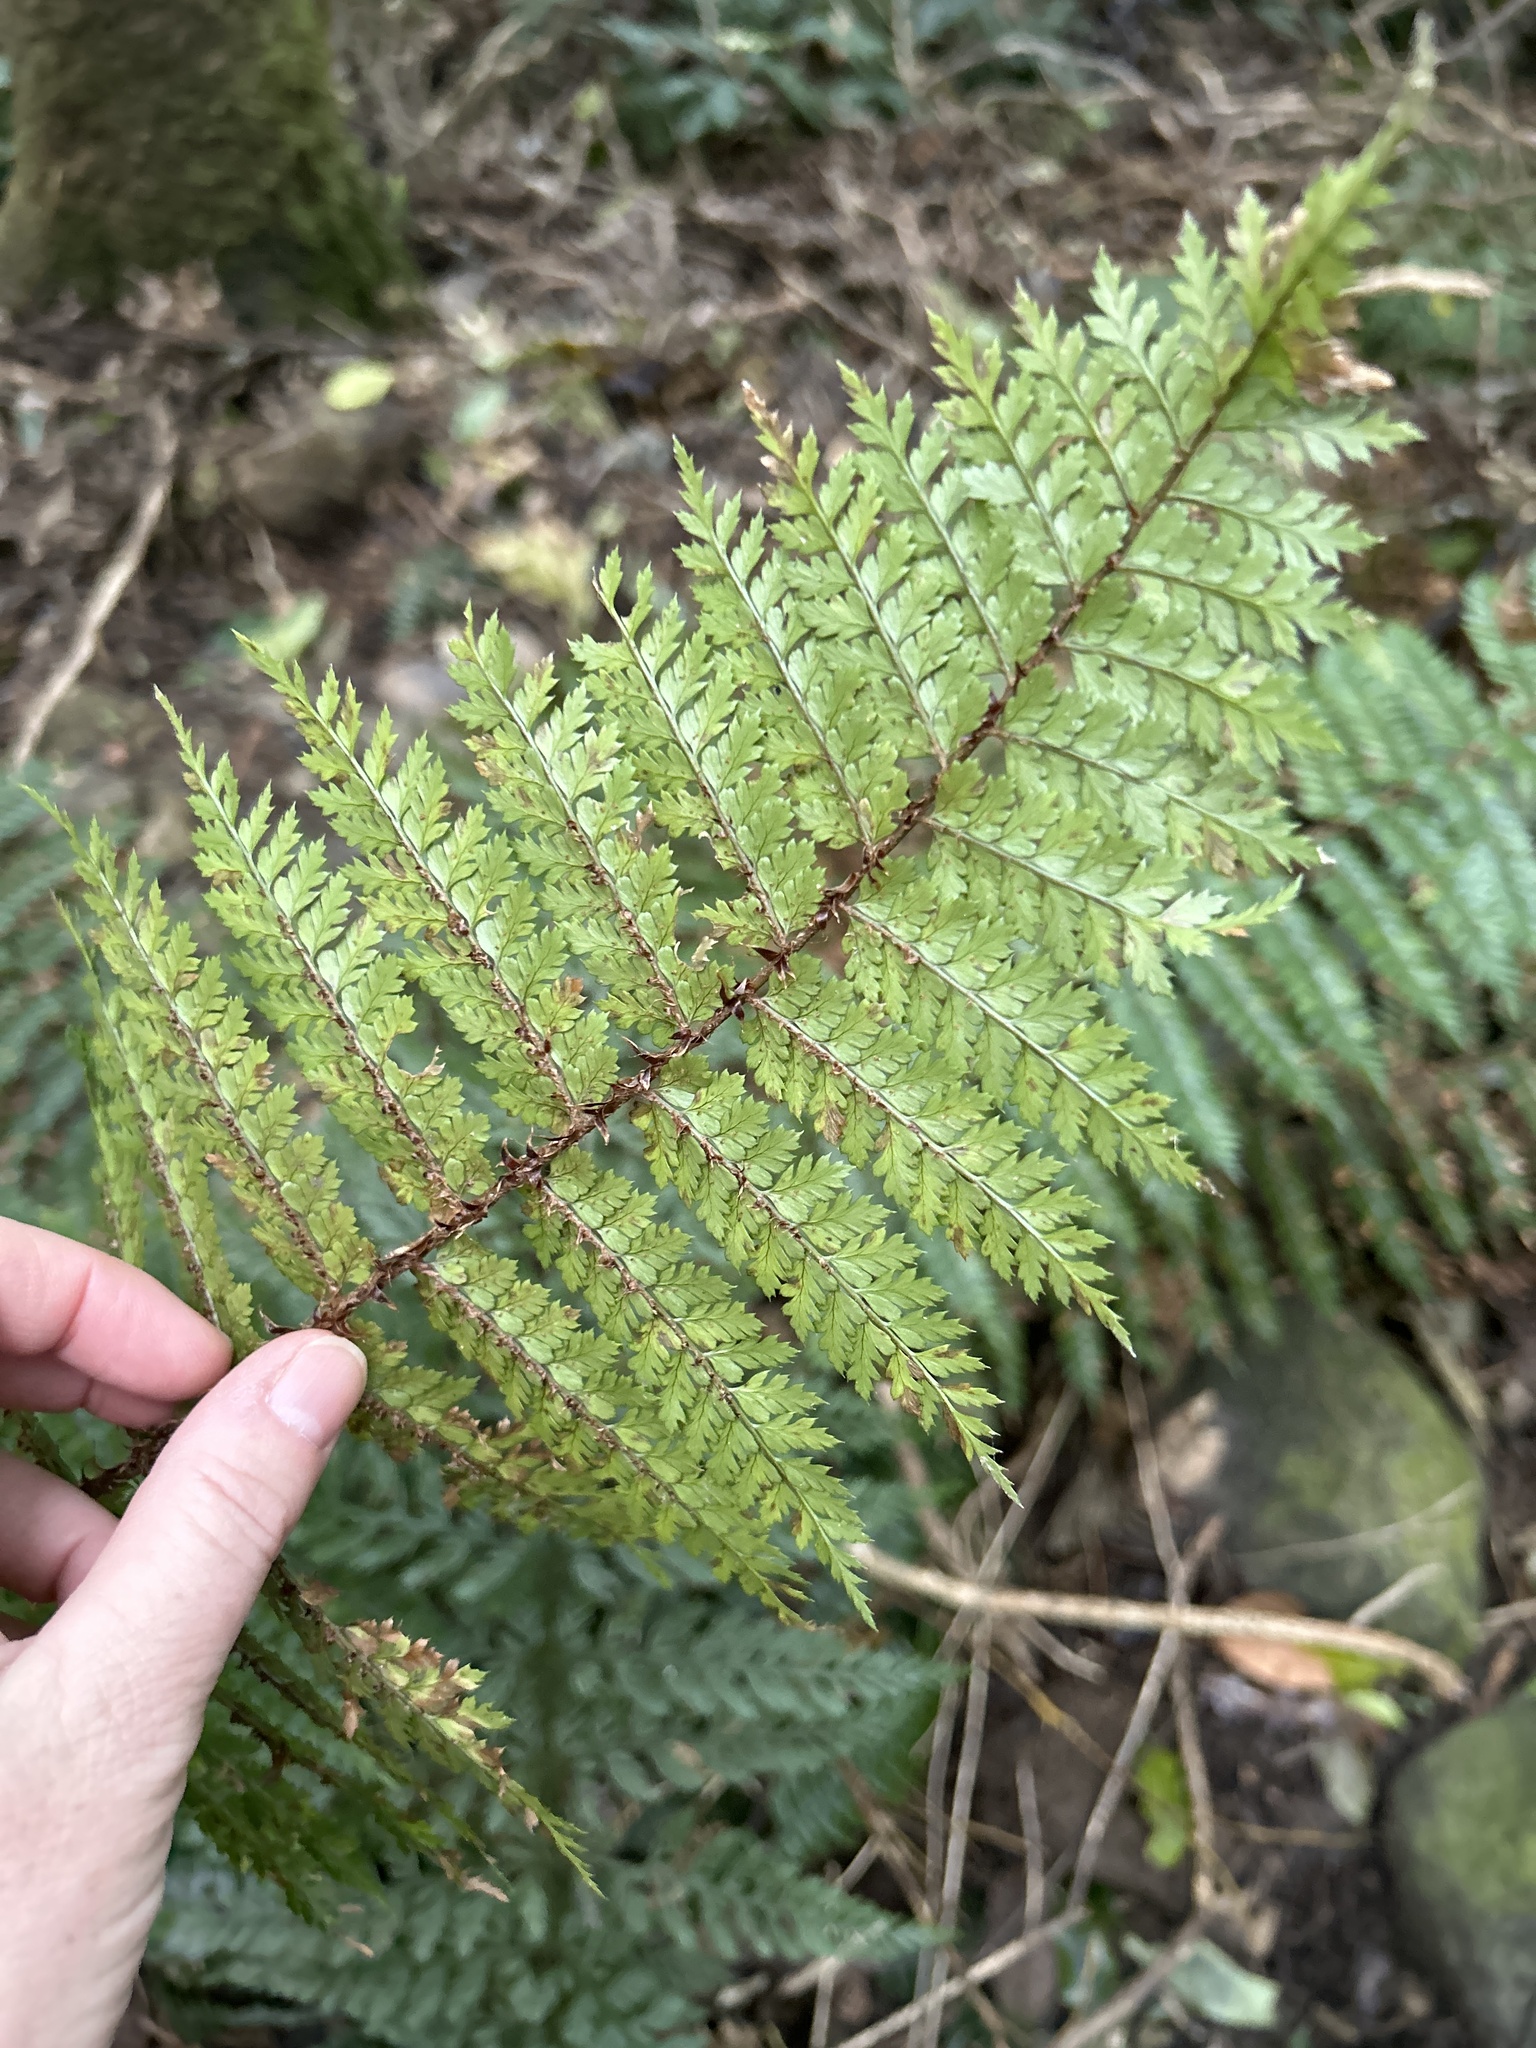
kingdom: Plantae
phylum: Tracheophyta
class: Polypodiopsida
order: Polypodiales
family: Dryopteridaceae
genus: Polystichum
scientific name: Polystichum vestitum
